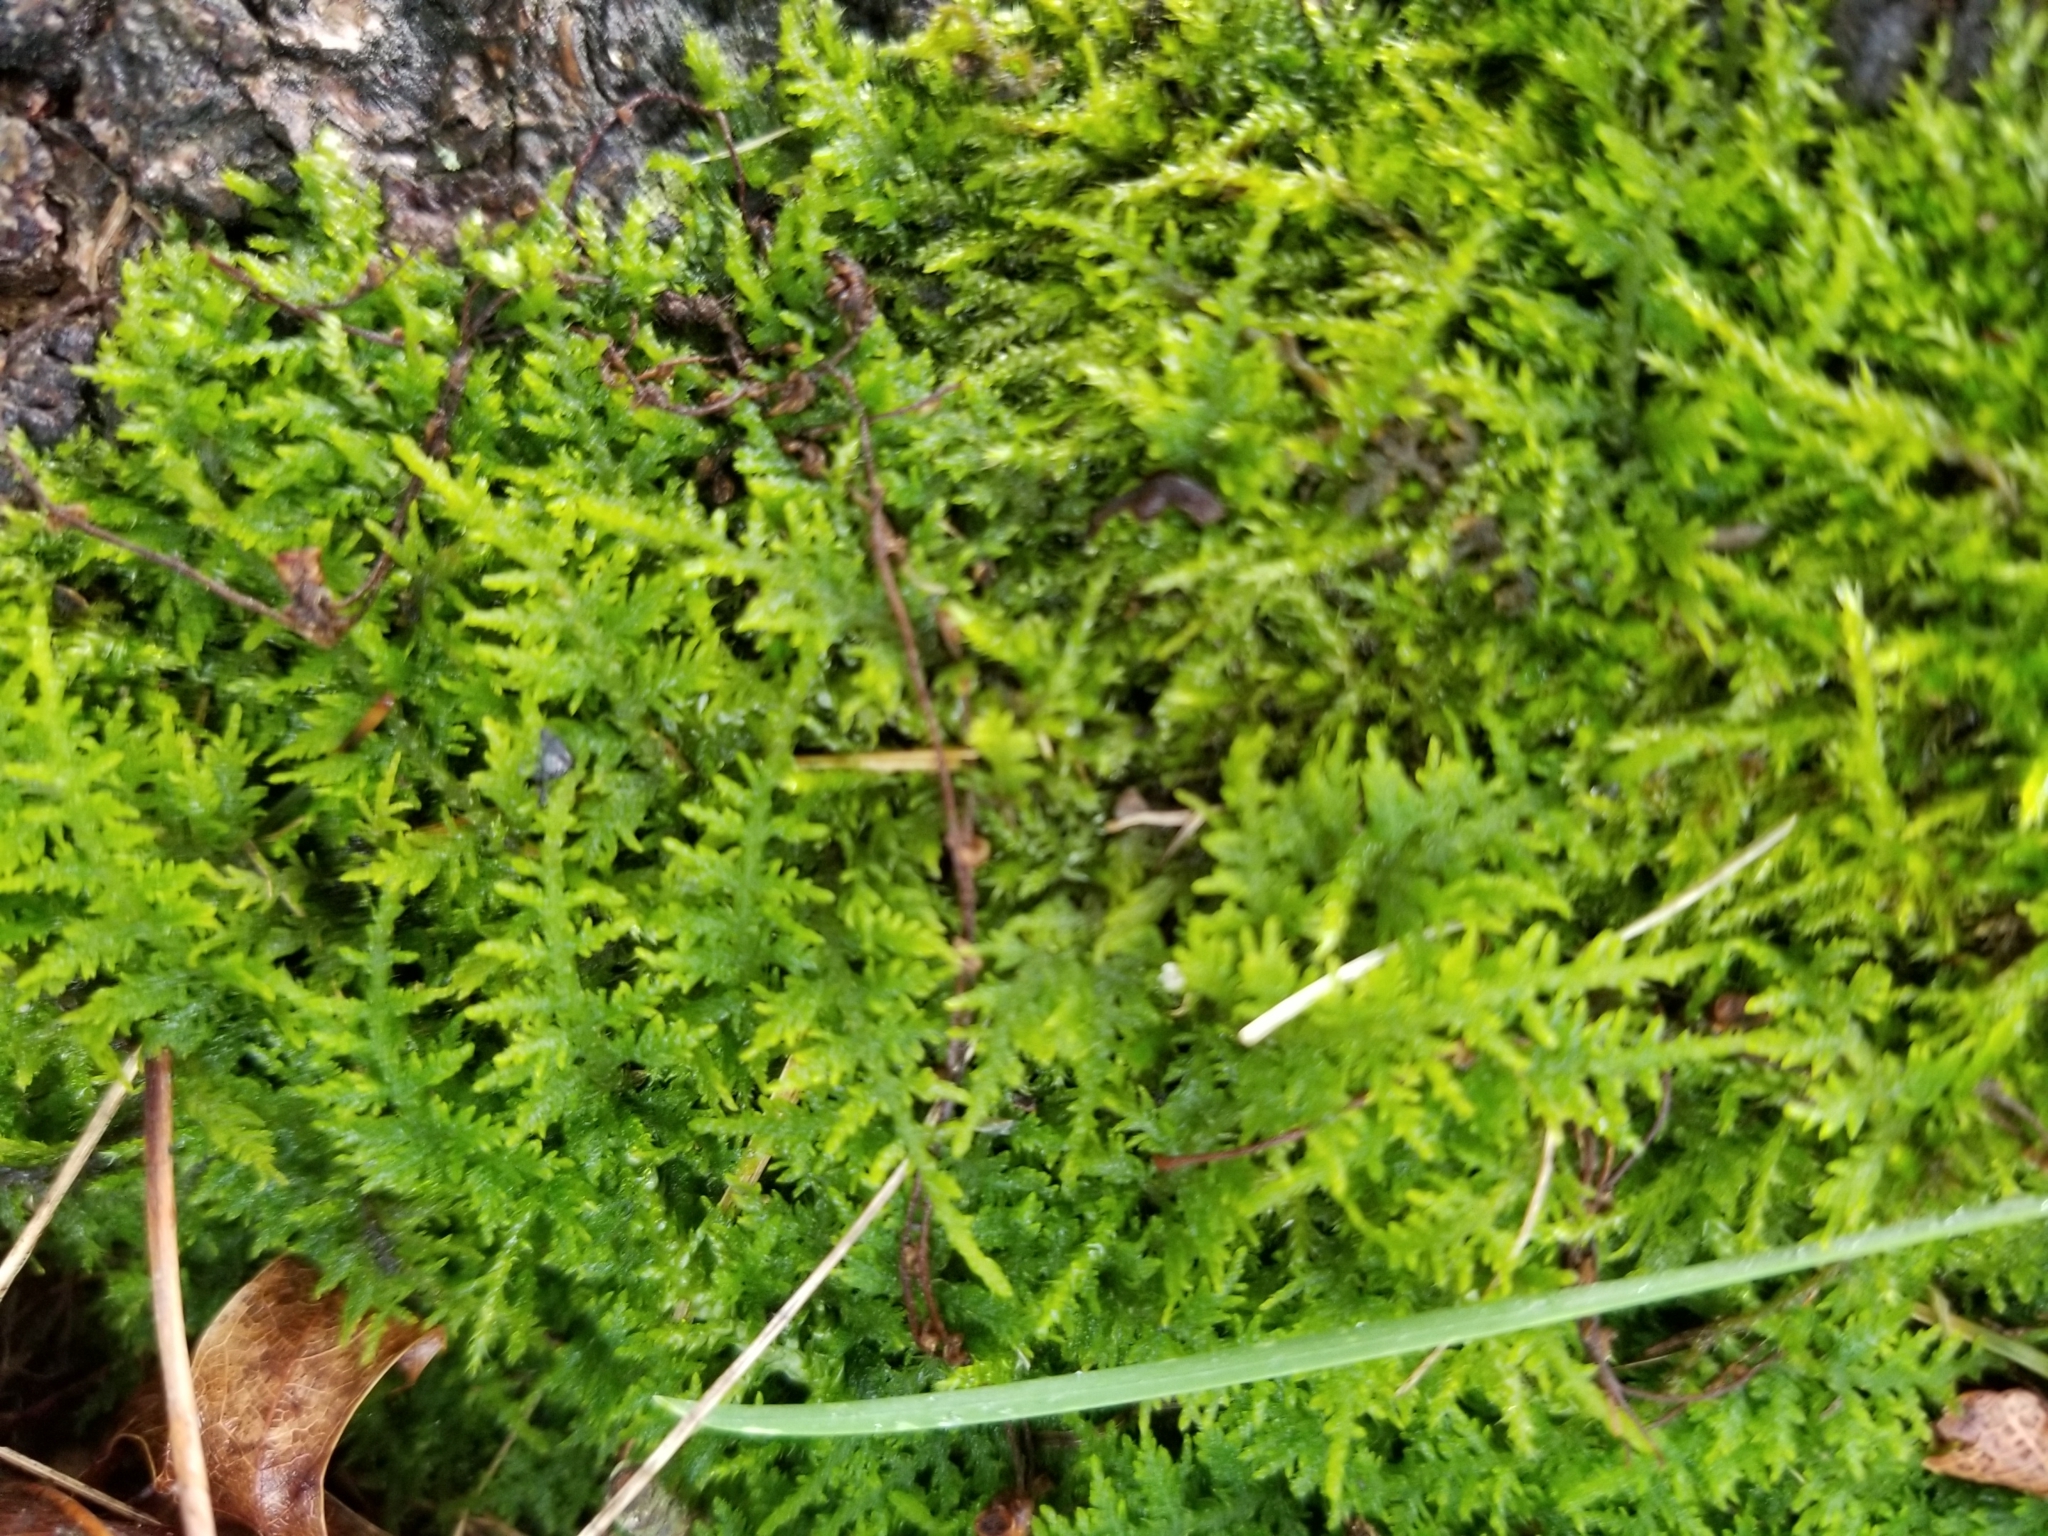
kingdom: Plantae
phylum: Bryophyta
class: Bryopsida
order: Hypnales
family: Thuidiaceae
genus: Thuidium
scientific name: Thuidium delicatulum
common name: Delicate fern moss
